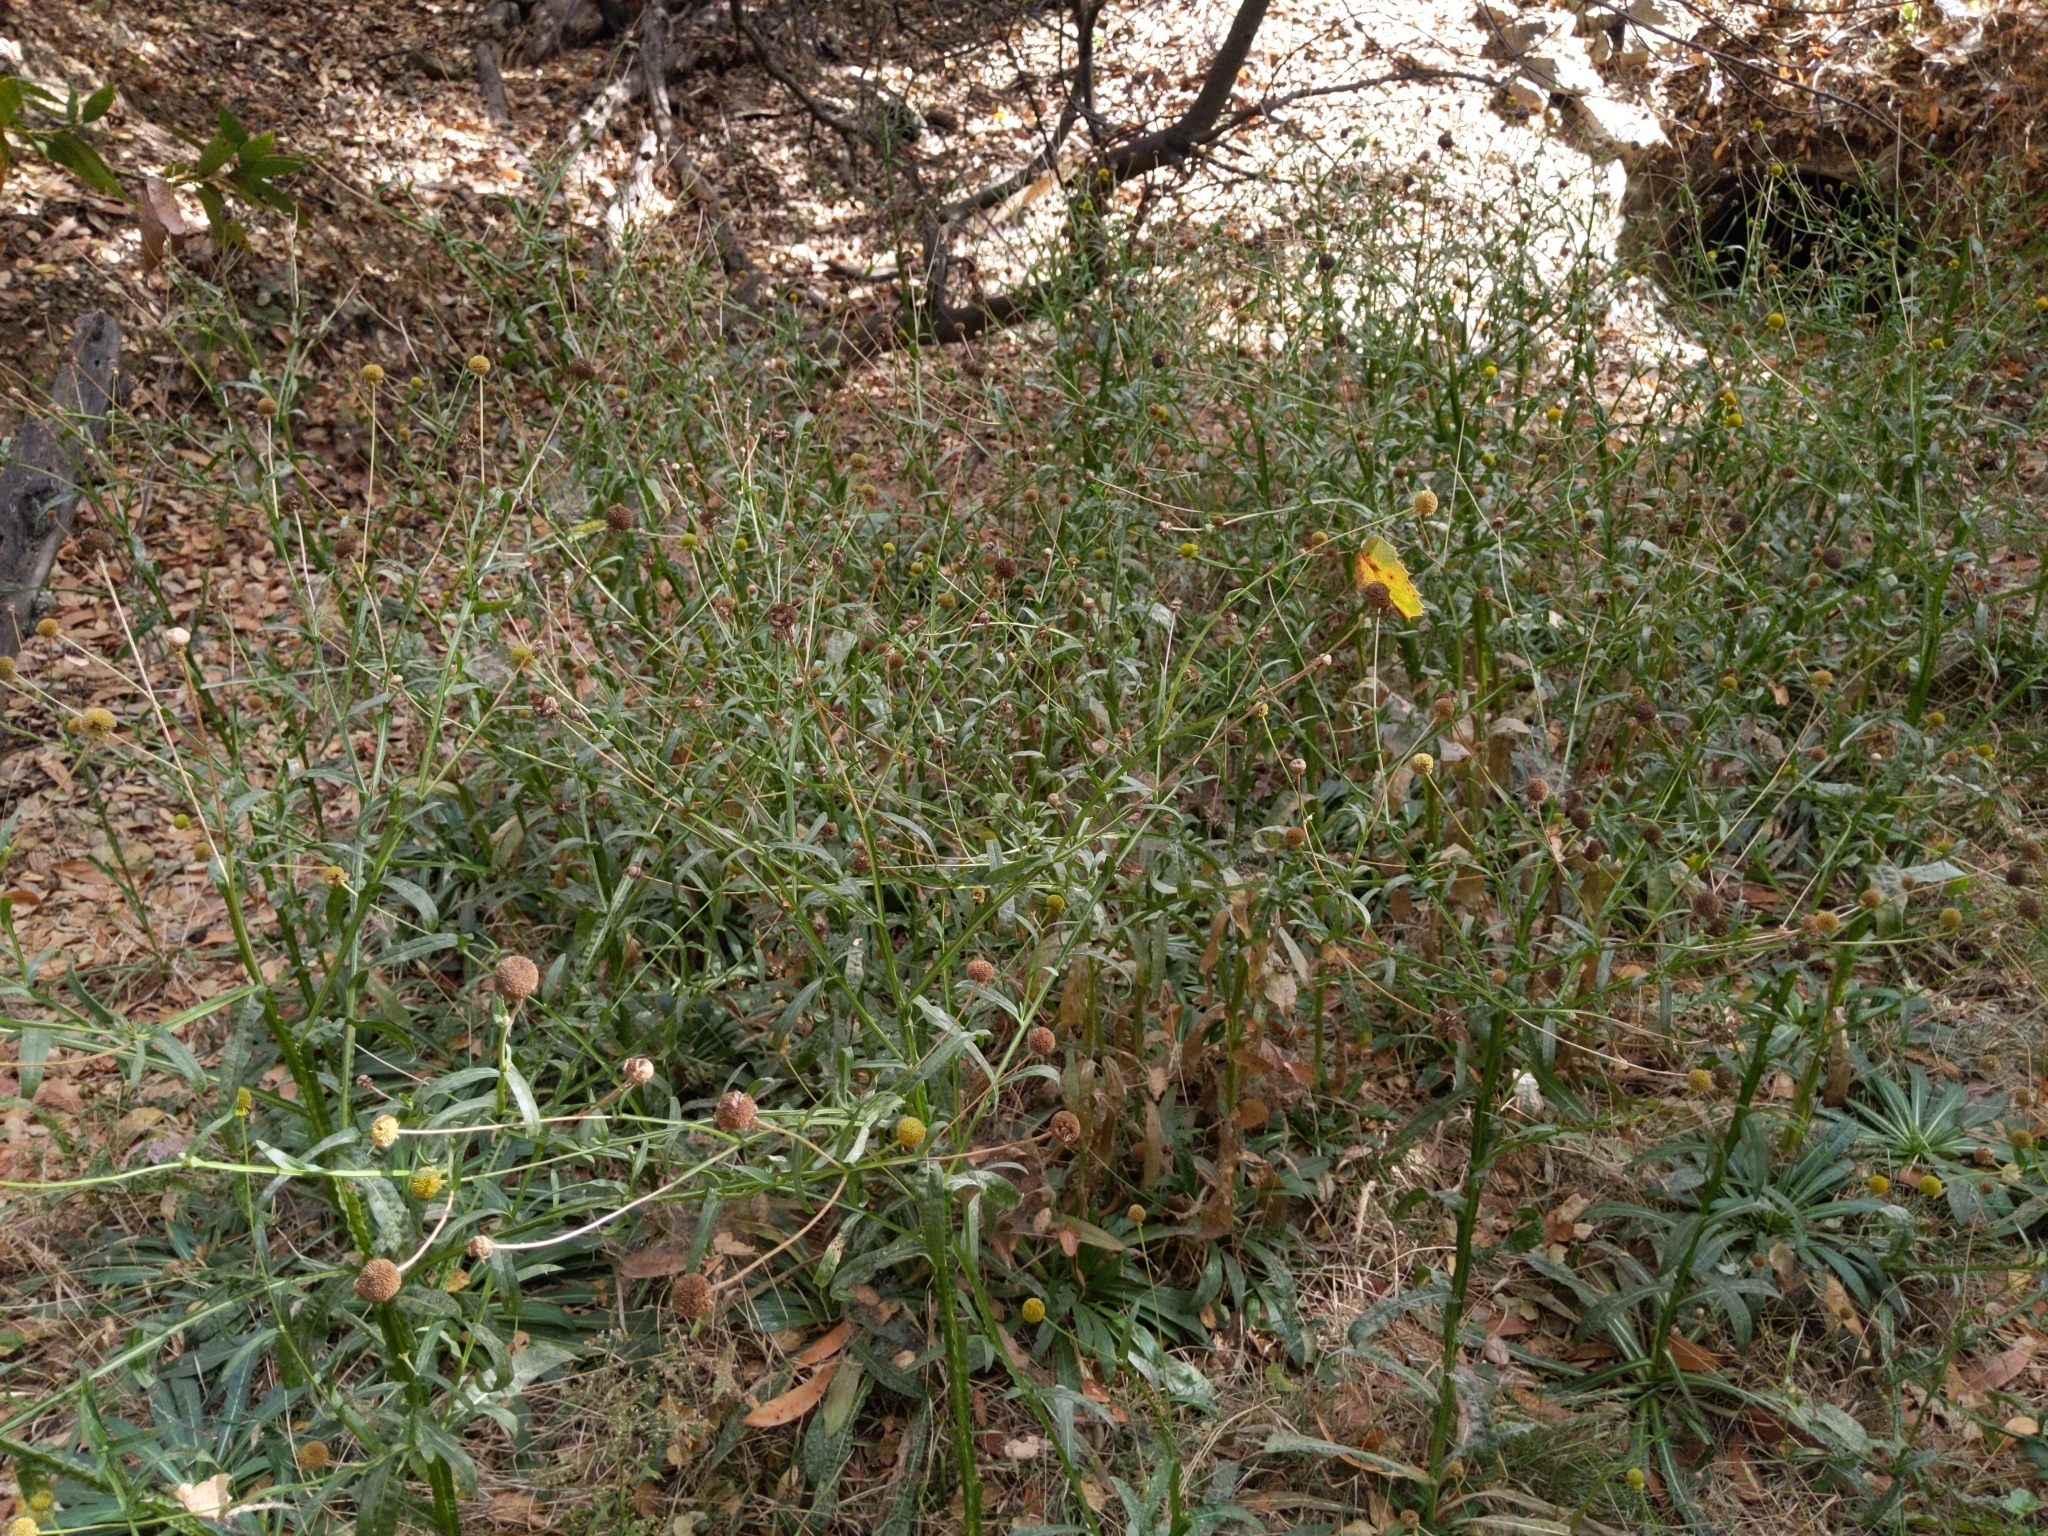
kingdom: Plantae
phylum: Tracheophyta
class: Magnoliopsida
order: Asterales
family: Asteraceae
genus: Helenium
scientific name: Helenium puberulum
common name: Sneezewort
